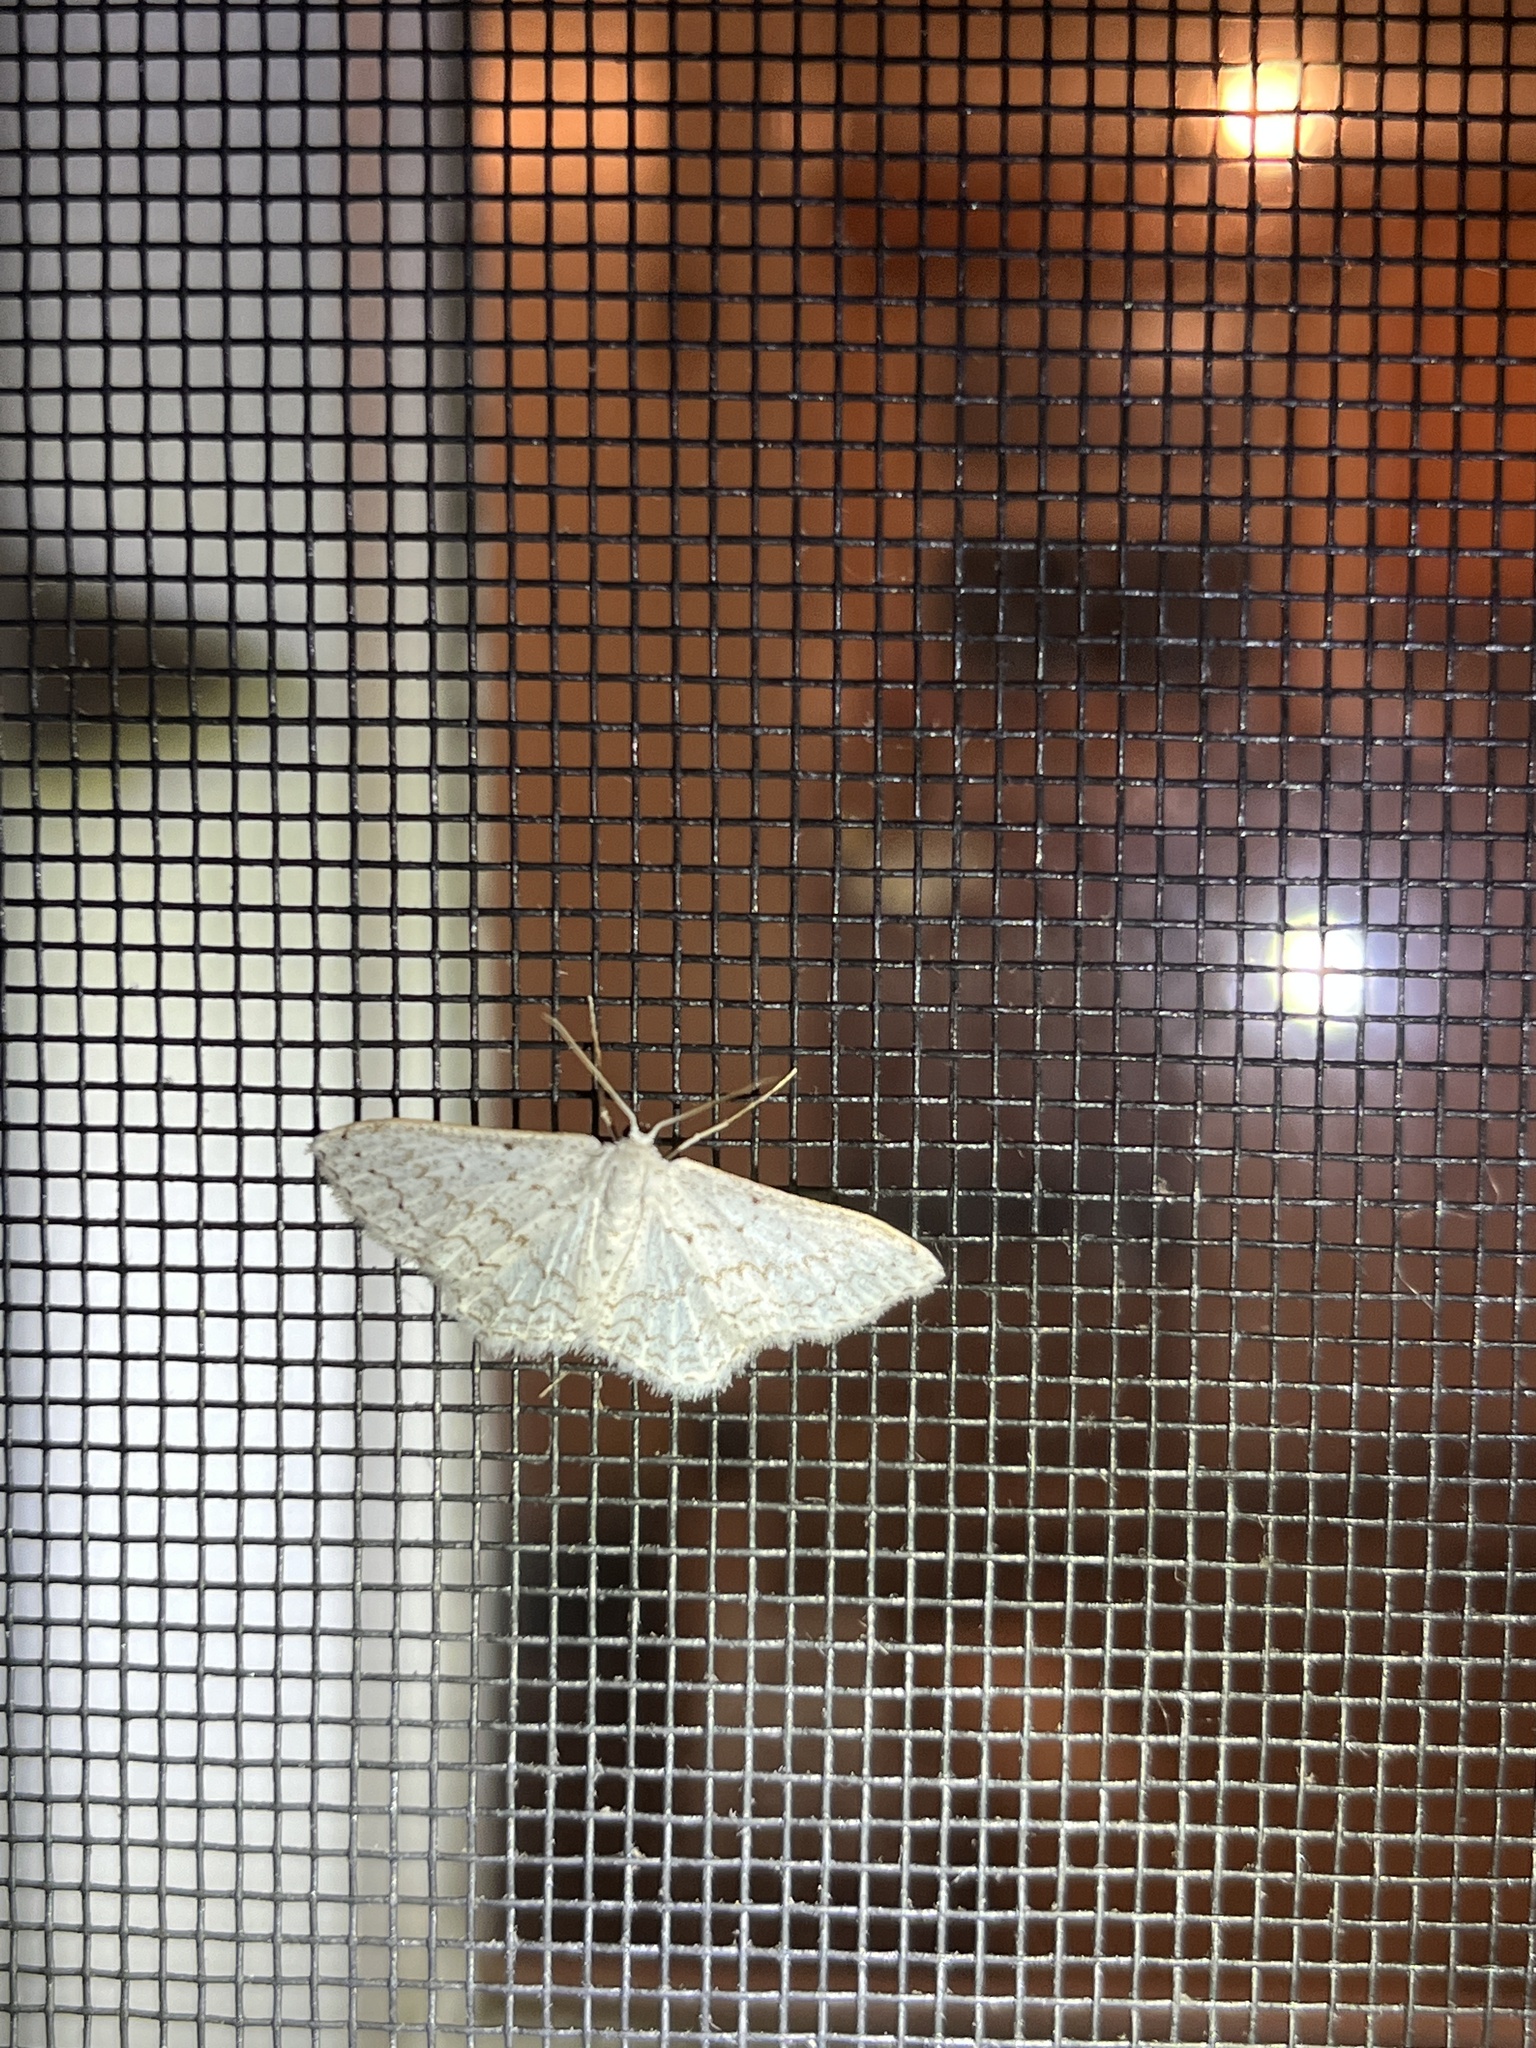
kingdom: Animalia
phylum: Arthropoda
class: Insecta
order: Lepidoptera
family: Geometridae
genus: Idaea
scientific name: Idaea tacturata
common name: Dot-lined wave
